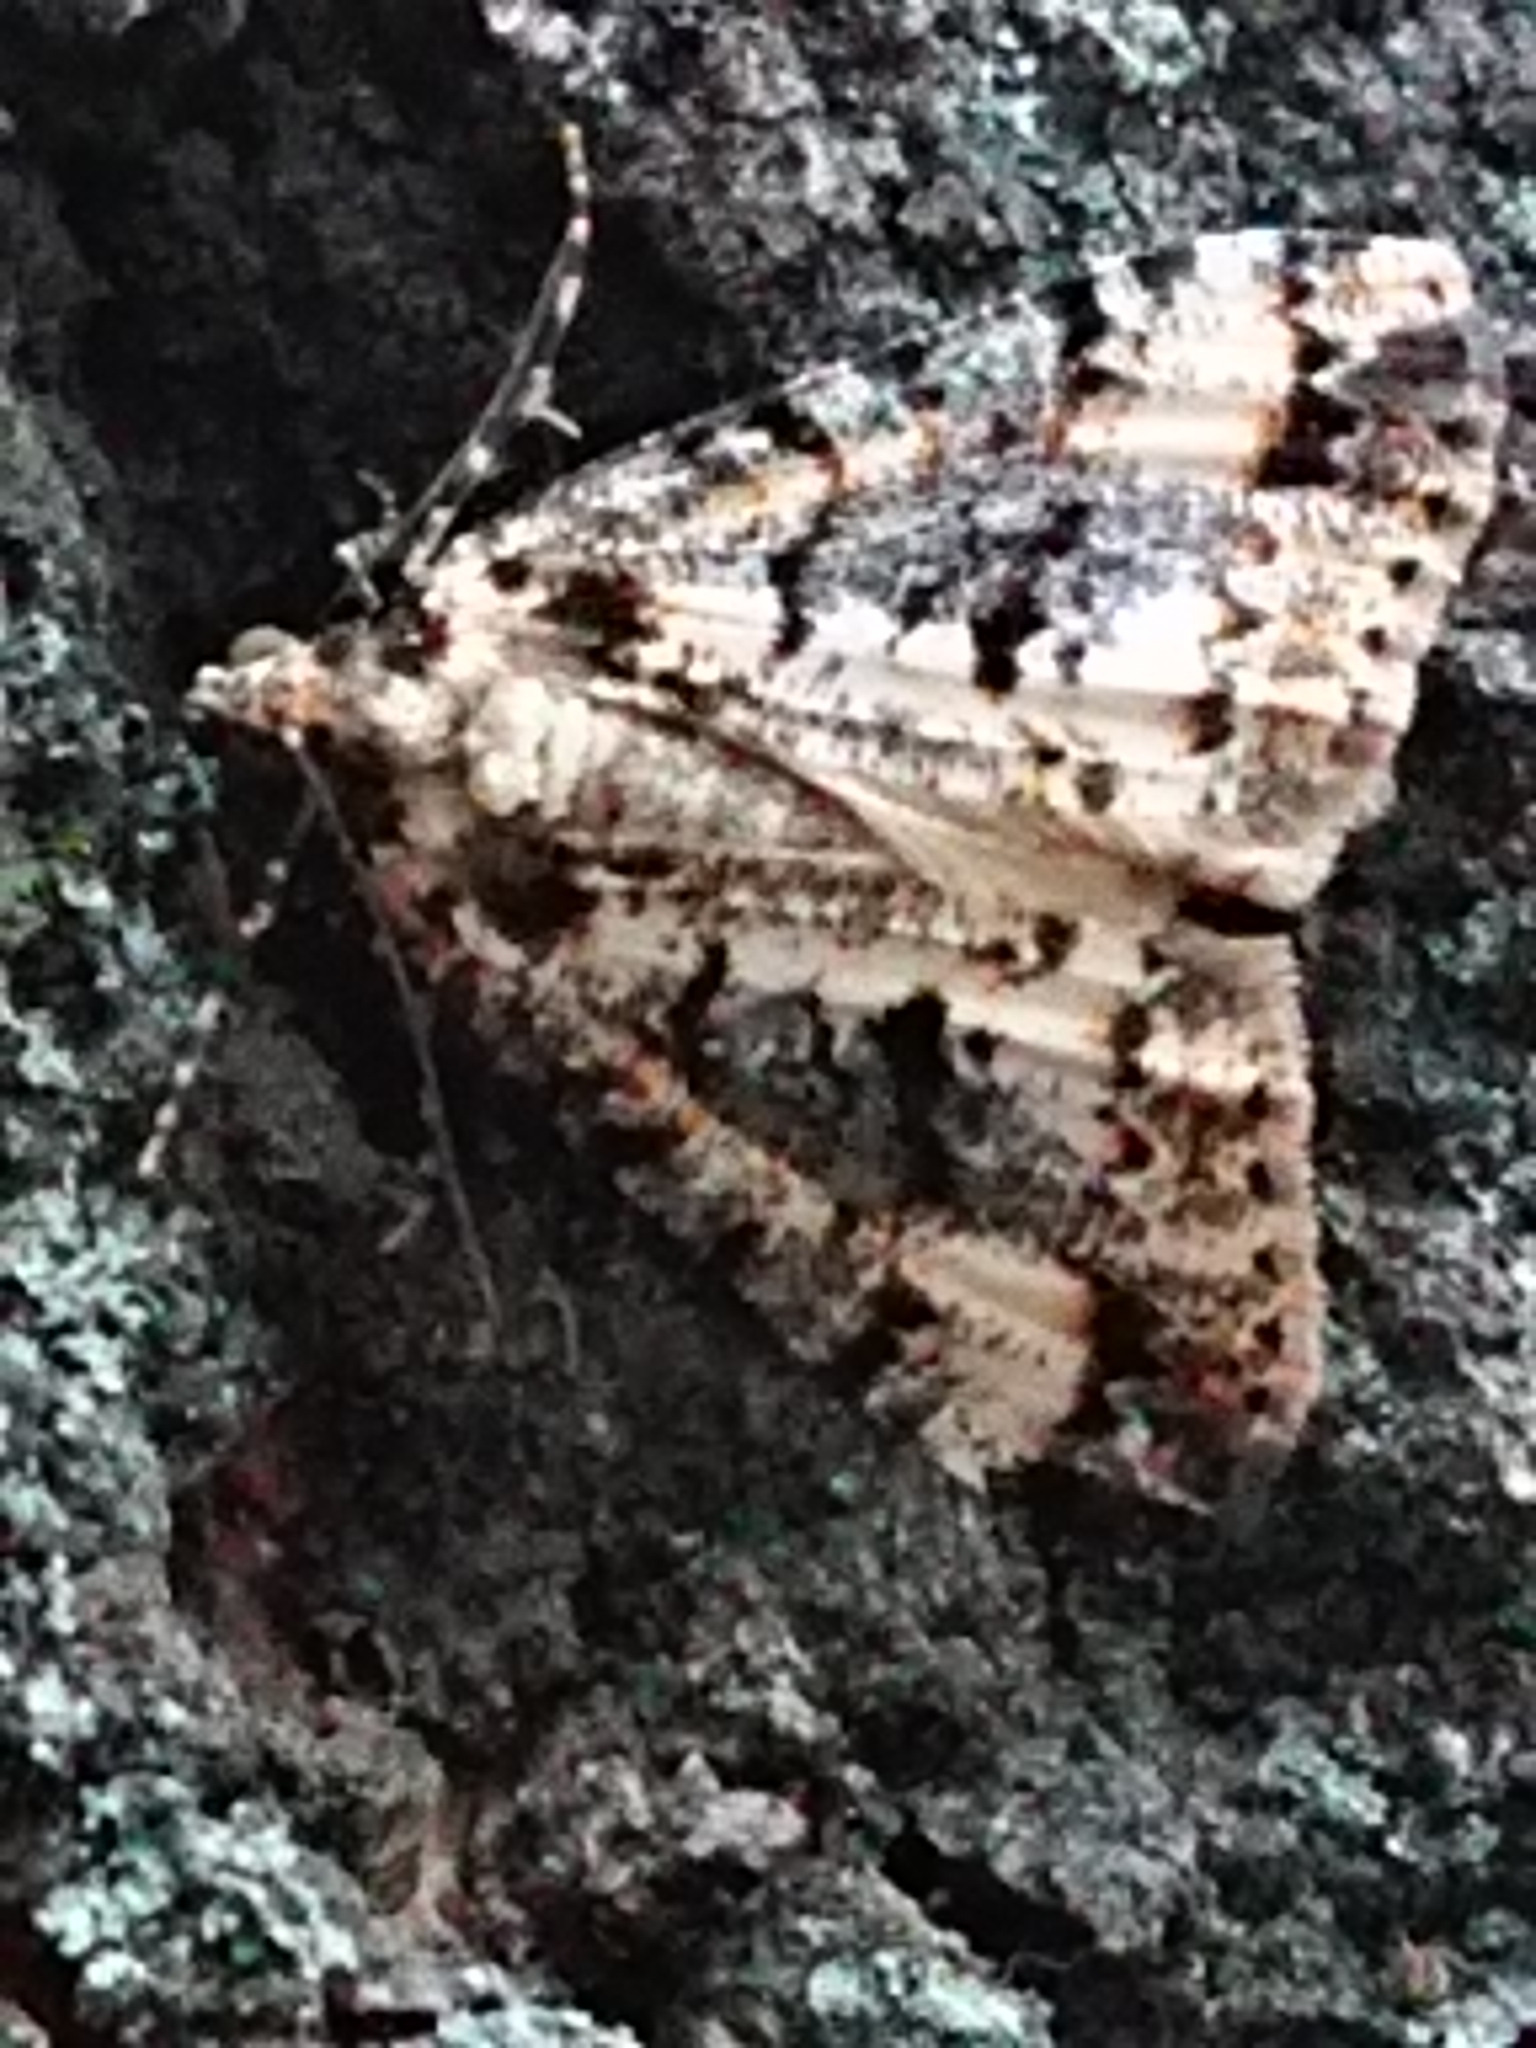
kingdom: Animalia
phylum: Arthropoda
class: Insecta
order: Lepidoptera
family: Geometridae
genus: Pseudocoremia
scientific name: Pseudocoremia leucelaea
